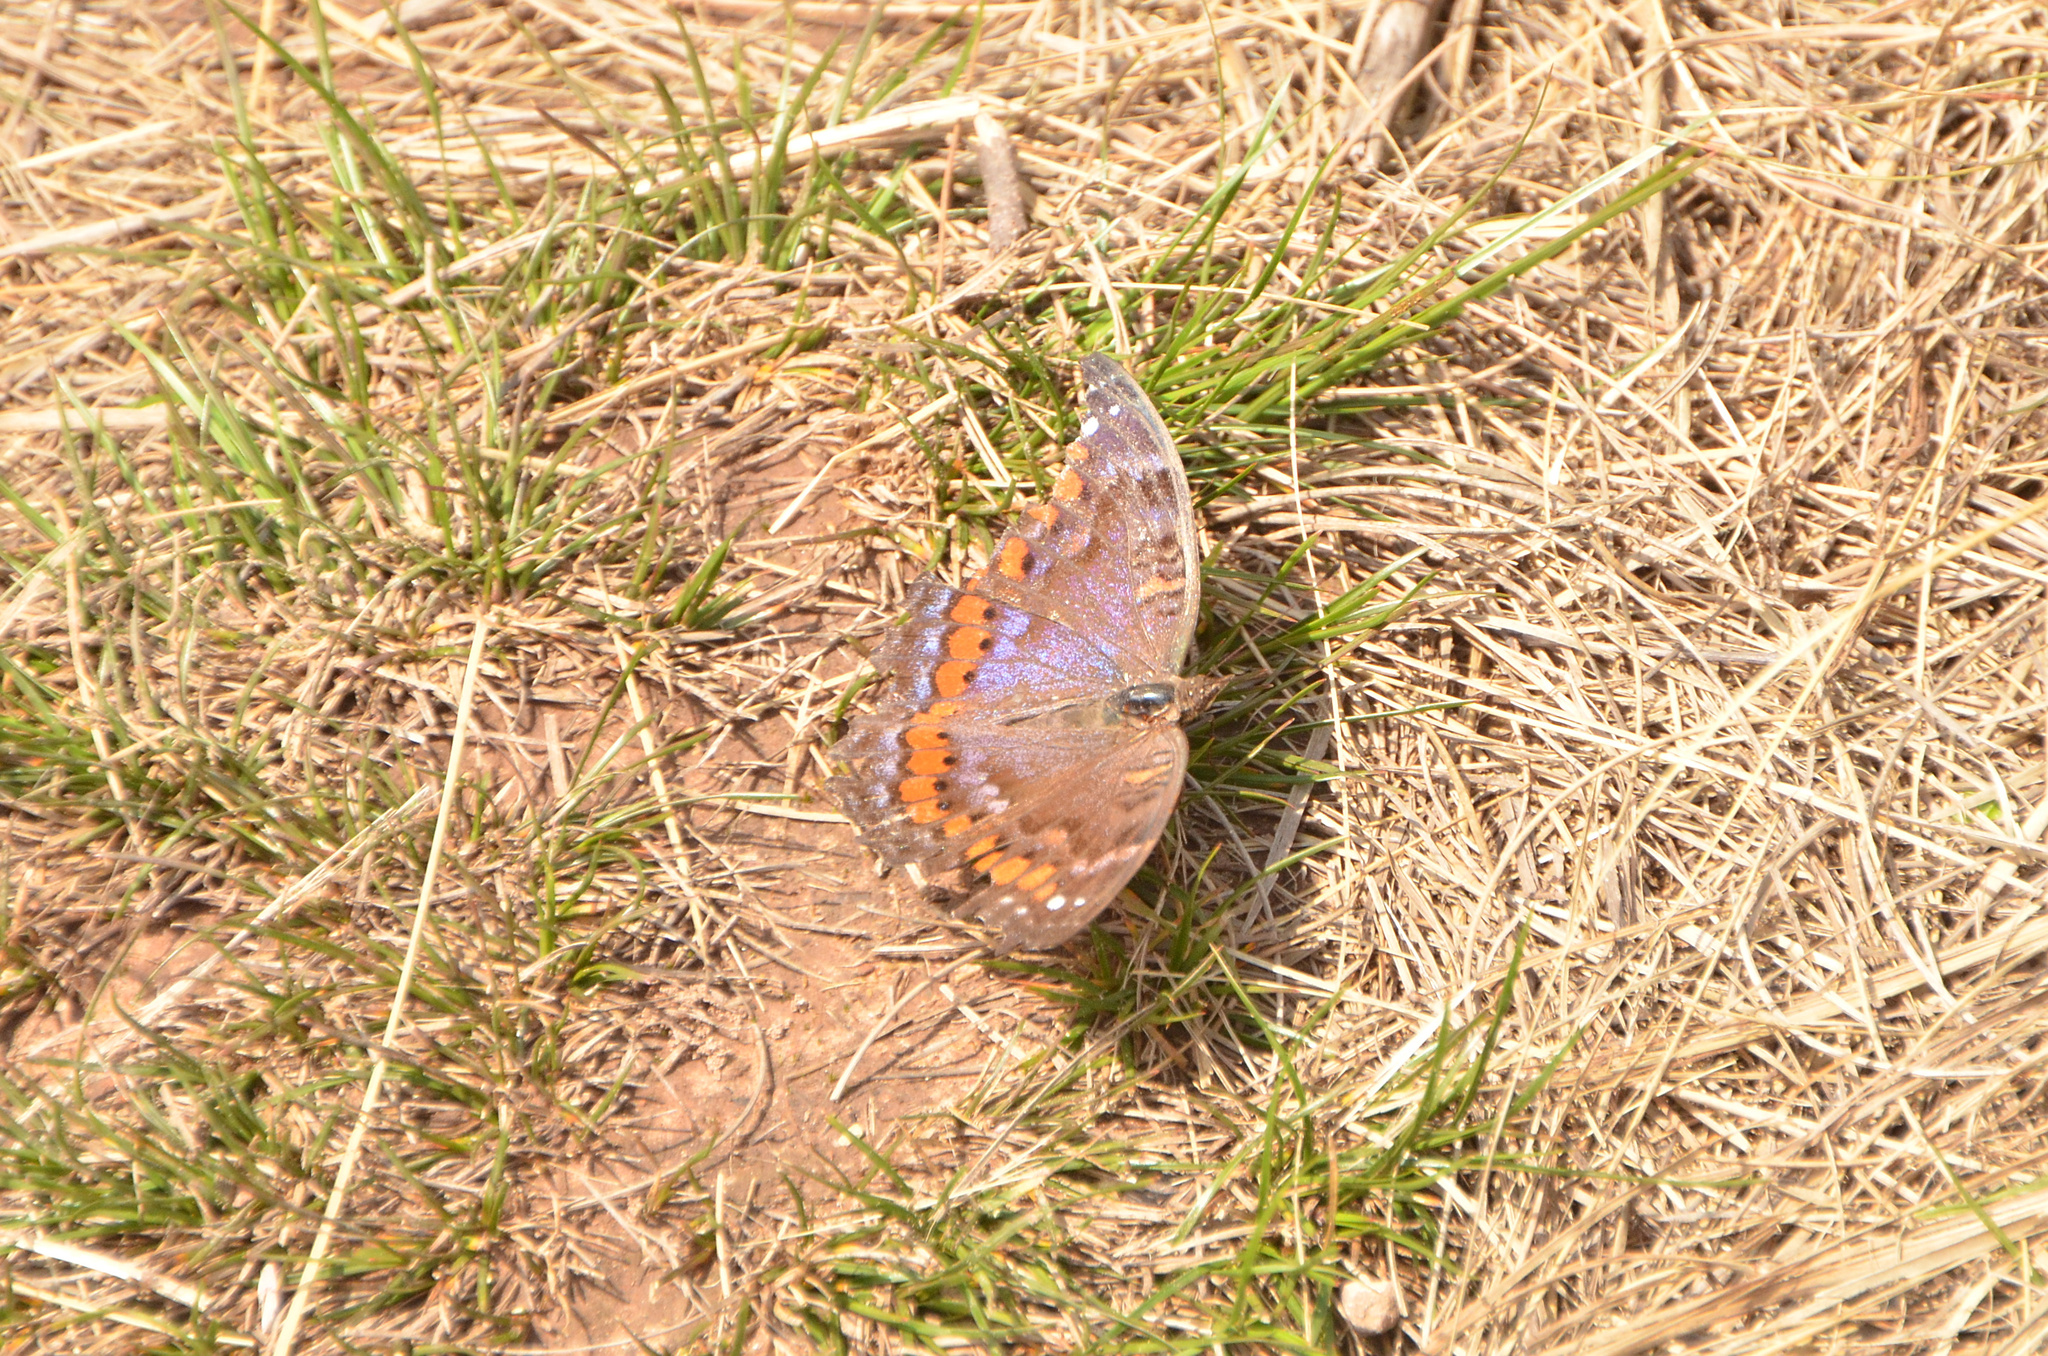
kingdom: Animalia
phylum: Arthropoda
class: Insecta
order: Lepidoptera
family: Nymphalidae
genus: Precis
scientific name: Precis octavia
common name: Gaudy commodore
